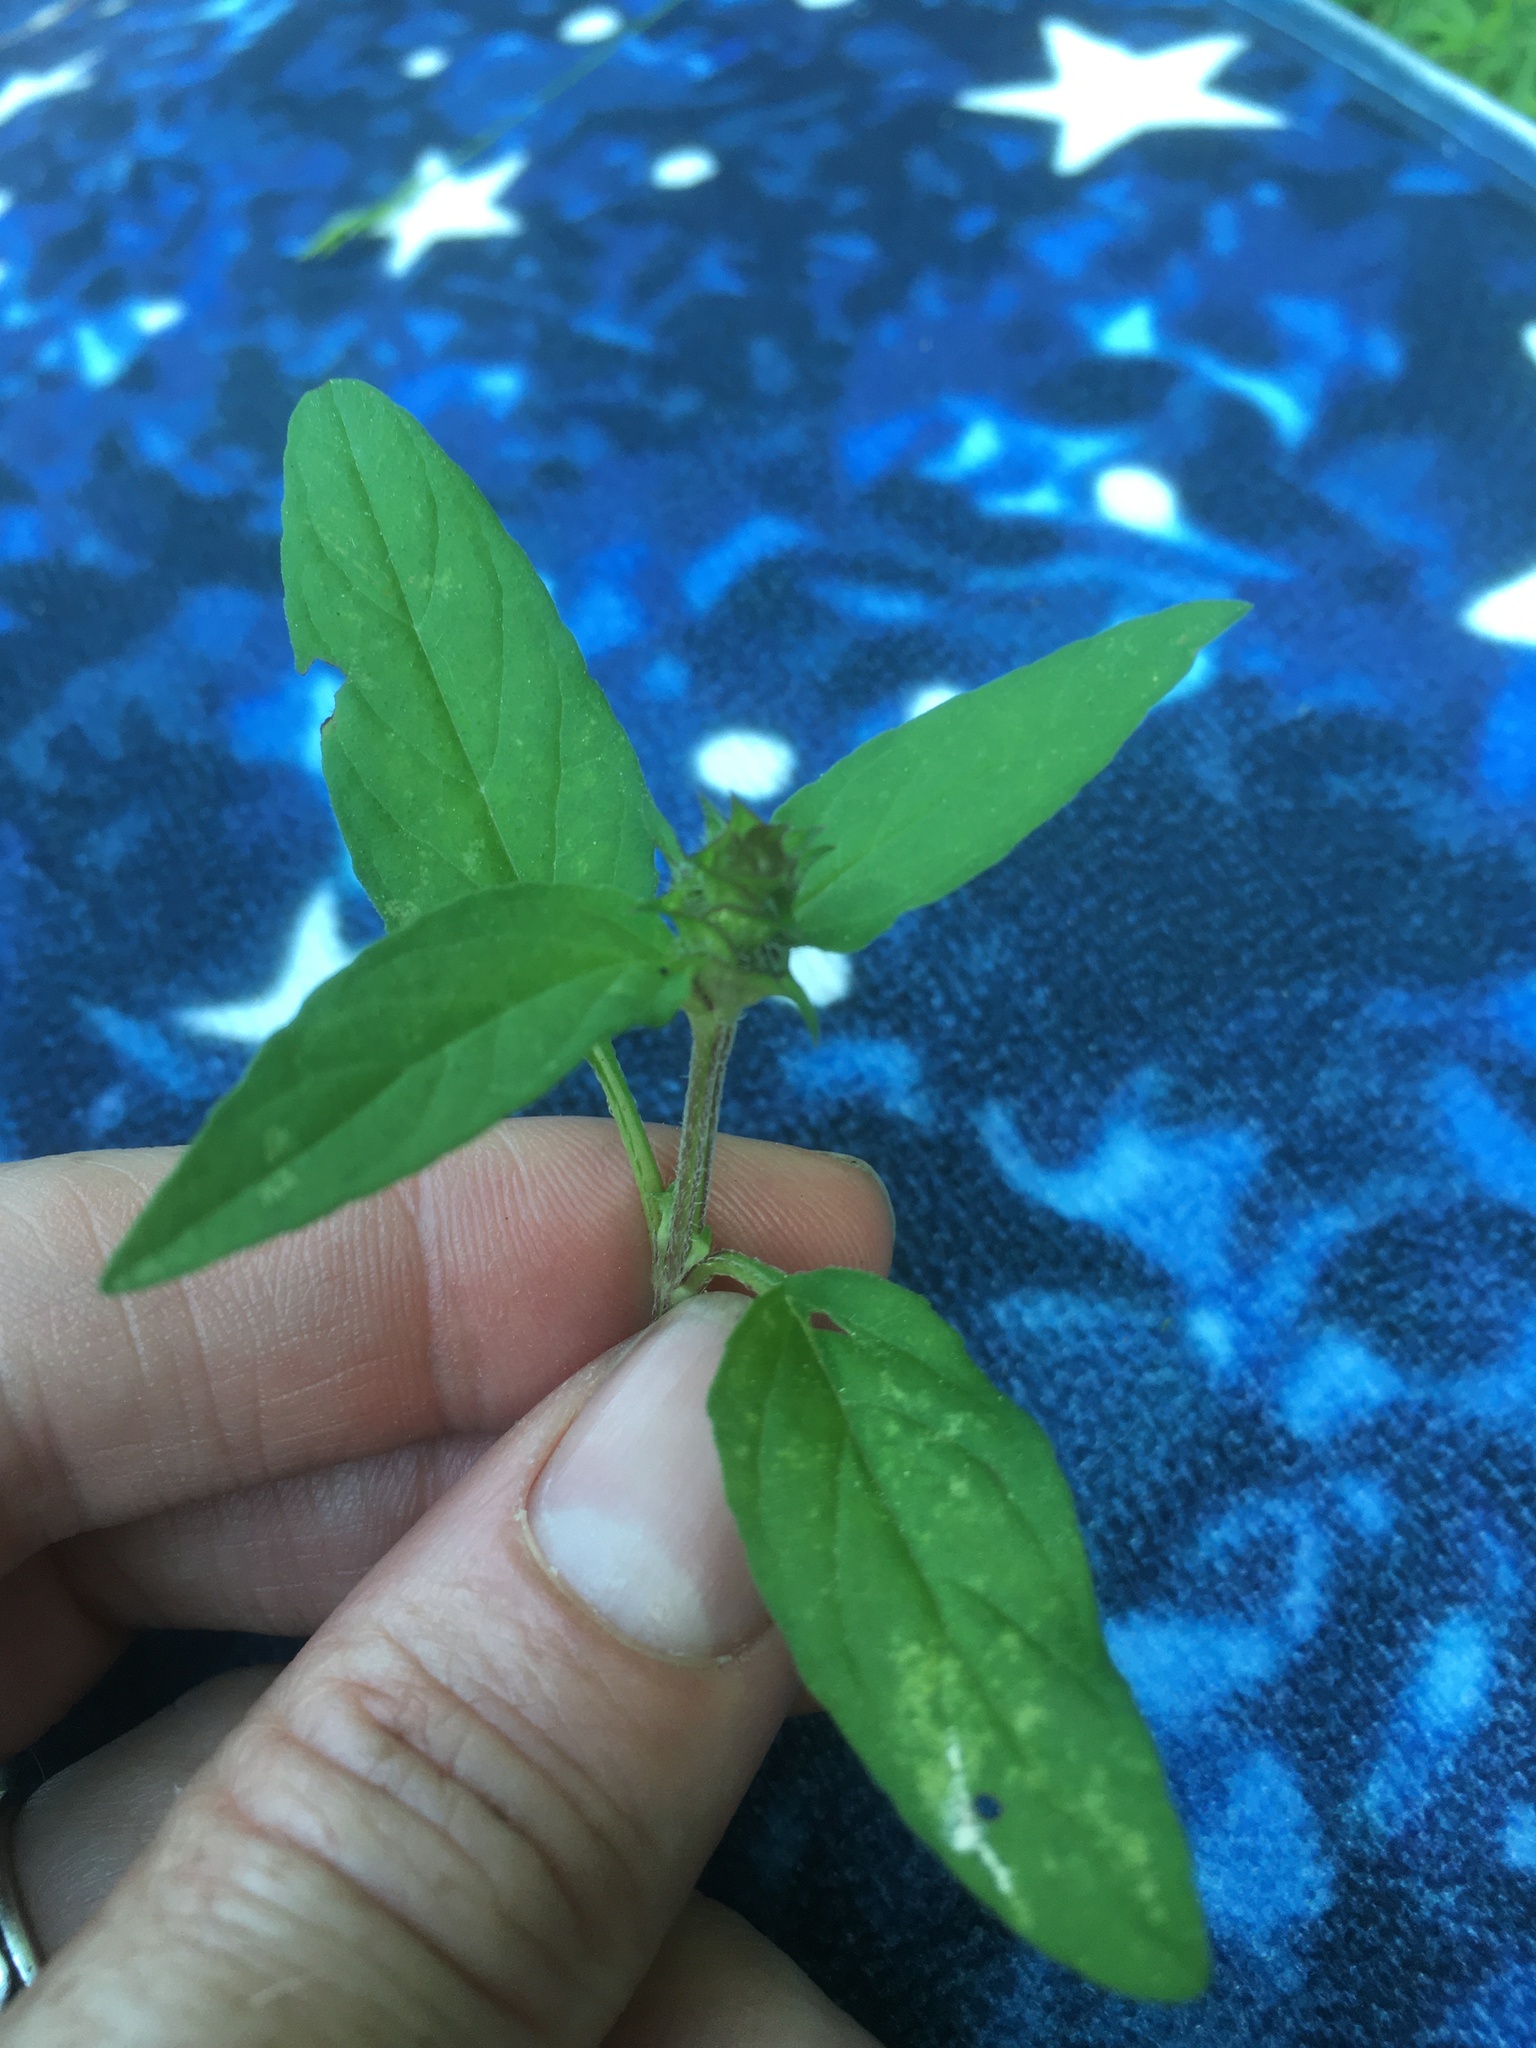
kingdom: Plantae
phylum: Tracheophyta
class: Magnoliopsida
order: Lamiales
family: Lamiaceae
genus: Prunella
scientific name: Prunella vulgaris
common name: Heal-all
